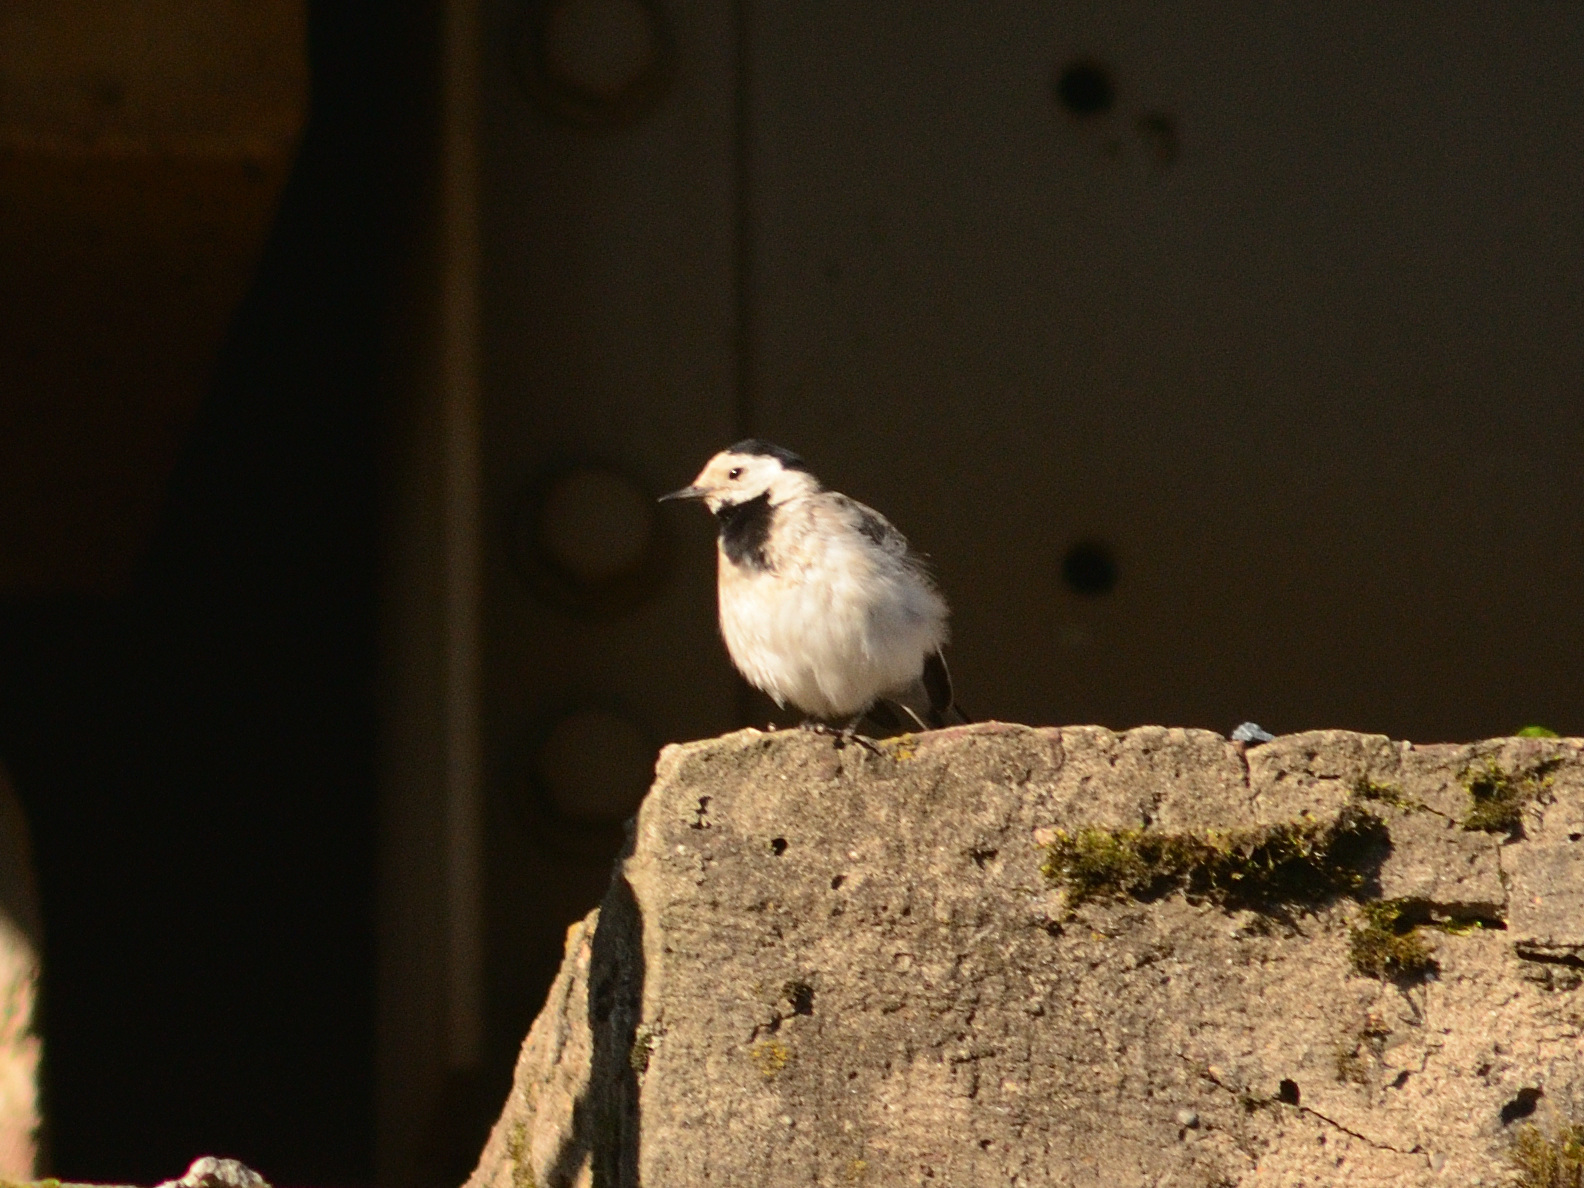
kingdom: Animalia
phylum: Chordata
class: Aves
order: Passeriformes
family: Motacillidae
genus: Motacilla
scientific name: Motacilla alba
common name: White wagtail
